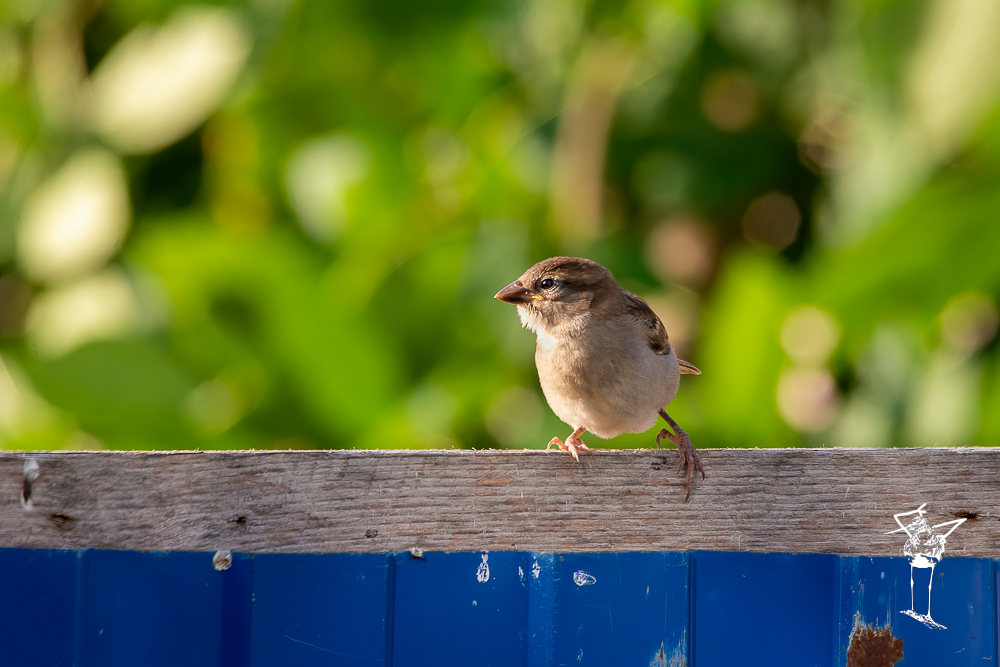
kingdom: Animalia
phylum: Chordata
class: Aves
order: Passeriformes
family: Passeridae
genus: Passer
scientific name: Passer domesticus
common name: House sparrow
